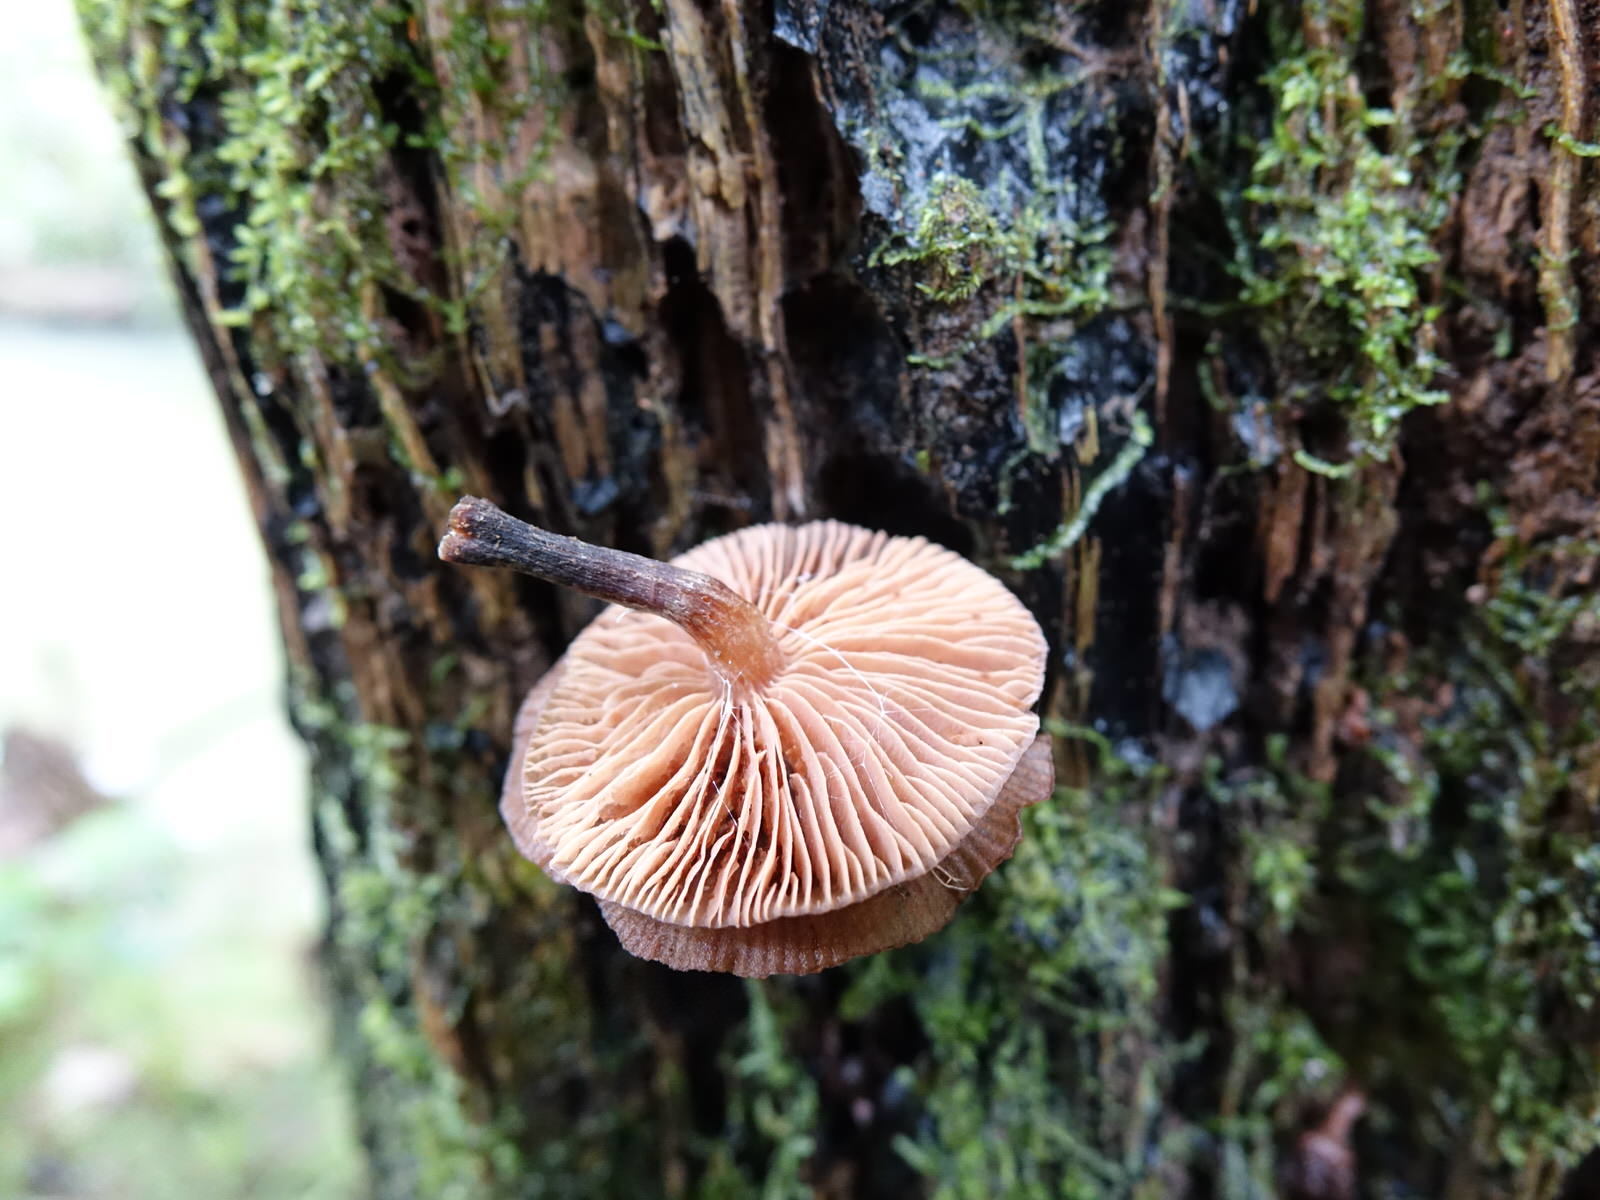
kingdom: Fungi
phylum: Basidiomycota
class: Agaricomycetes
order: Agaricales
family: Physalacriaceae
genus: Armillaria
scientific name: Armillaria novae-zelandiae
